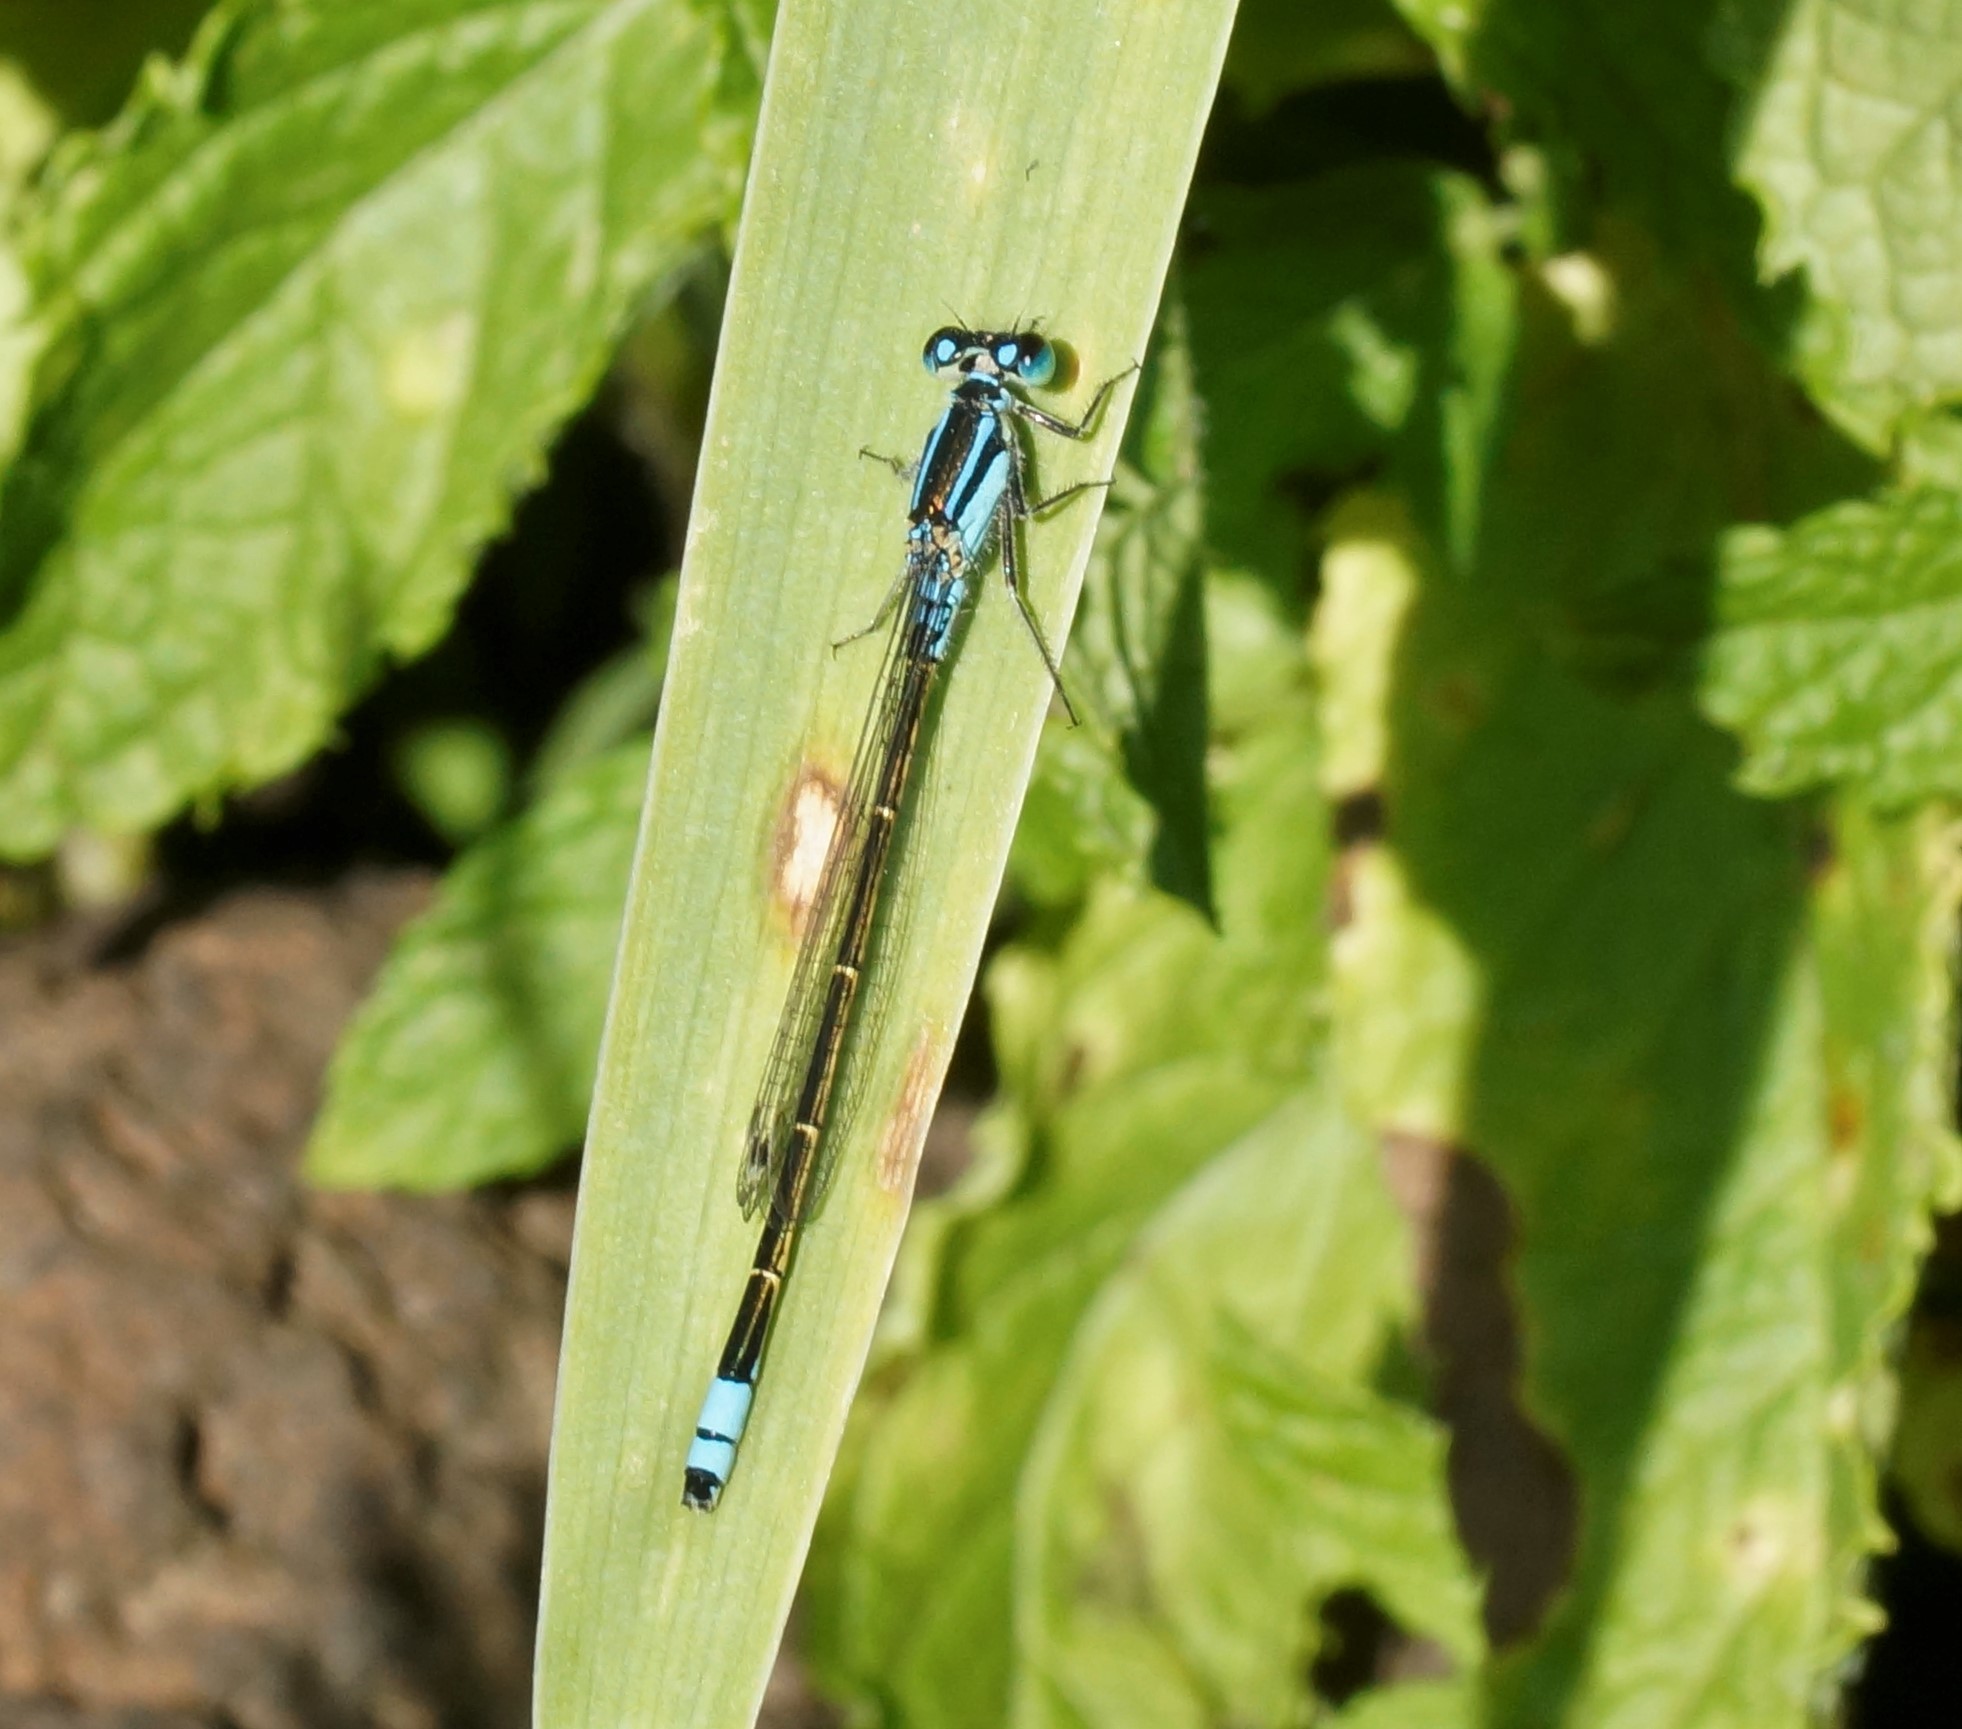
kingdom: Animalia
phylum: Arthropoda
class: Insecta
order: Odonata
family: Coenagrionidae
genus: Ischnura
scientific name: Ischnura heterosticta
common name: Common bluetail
